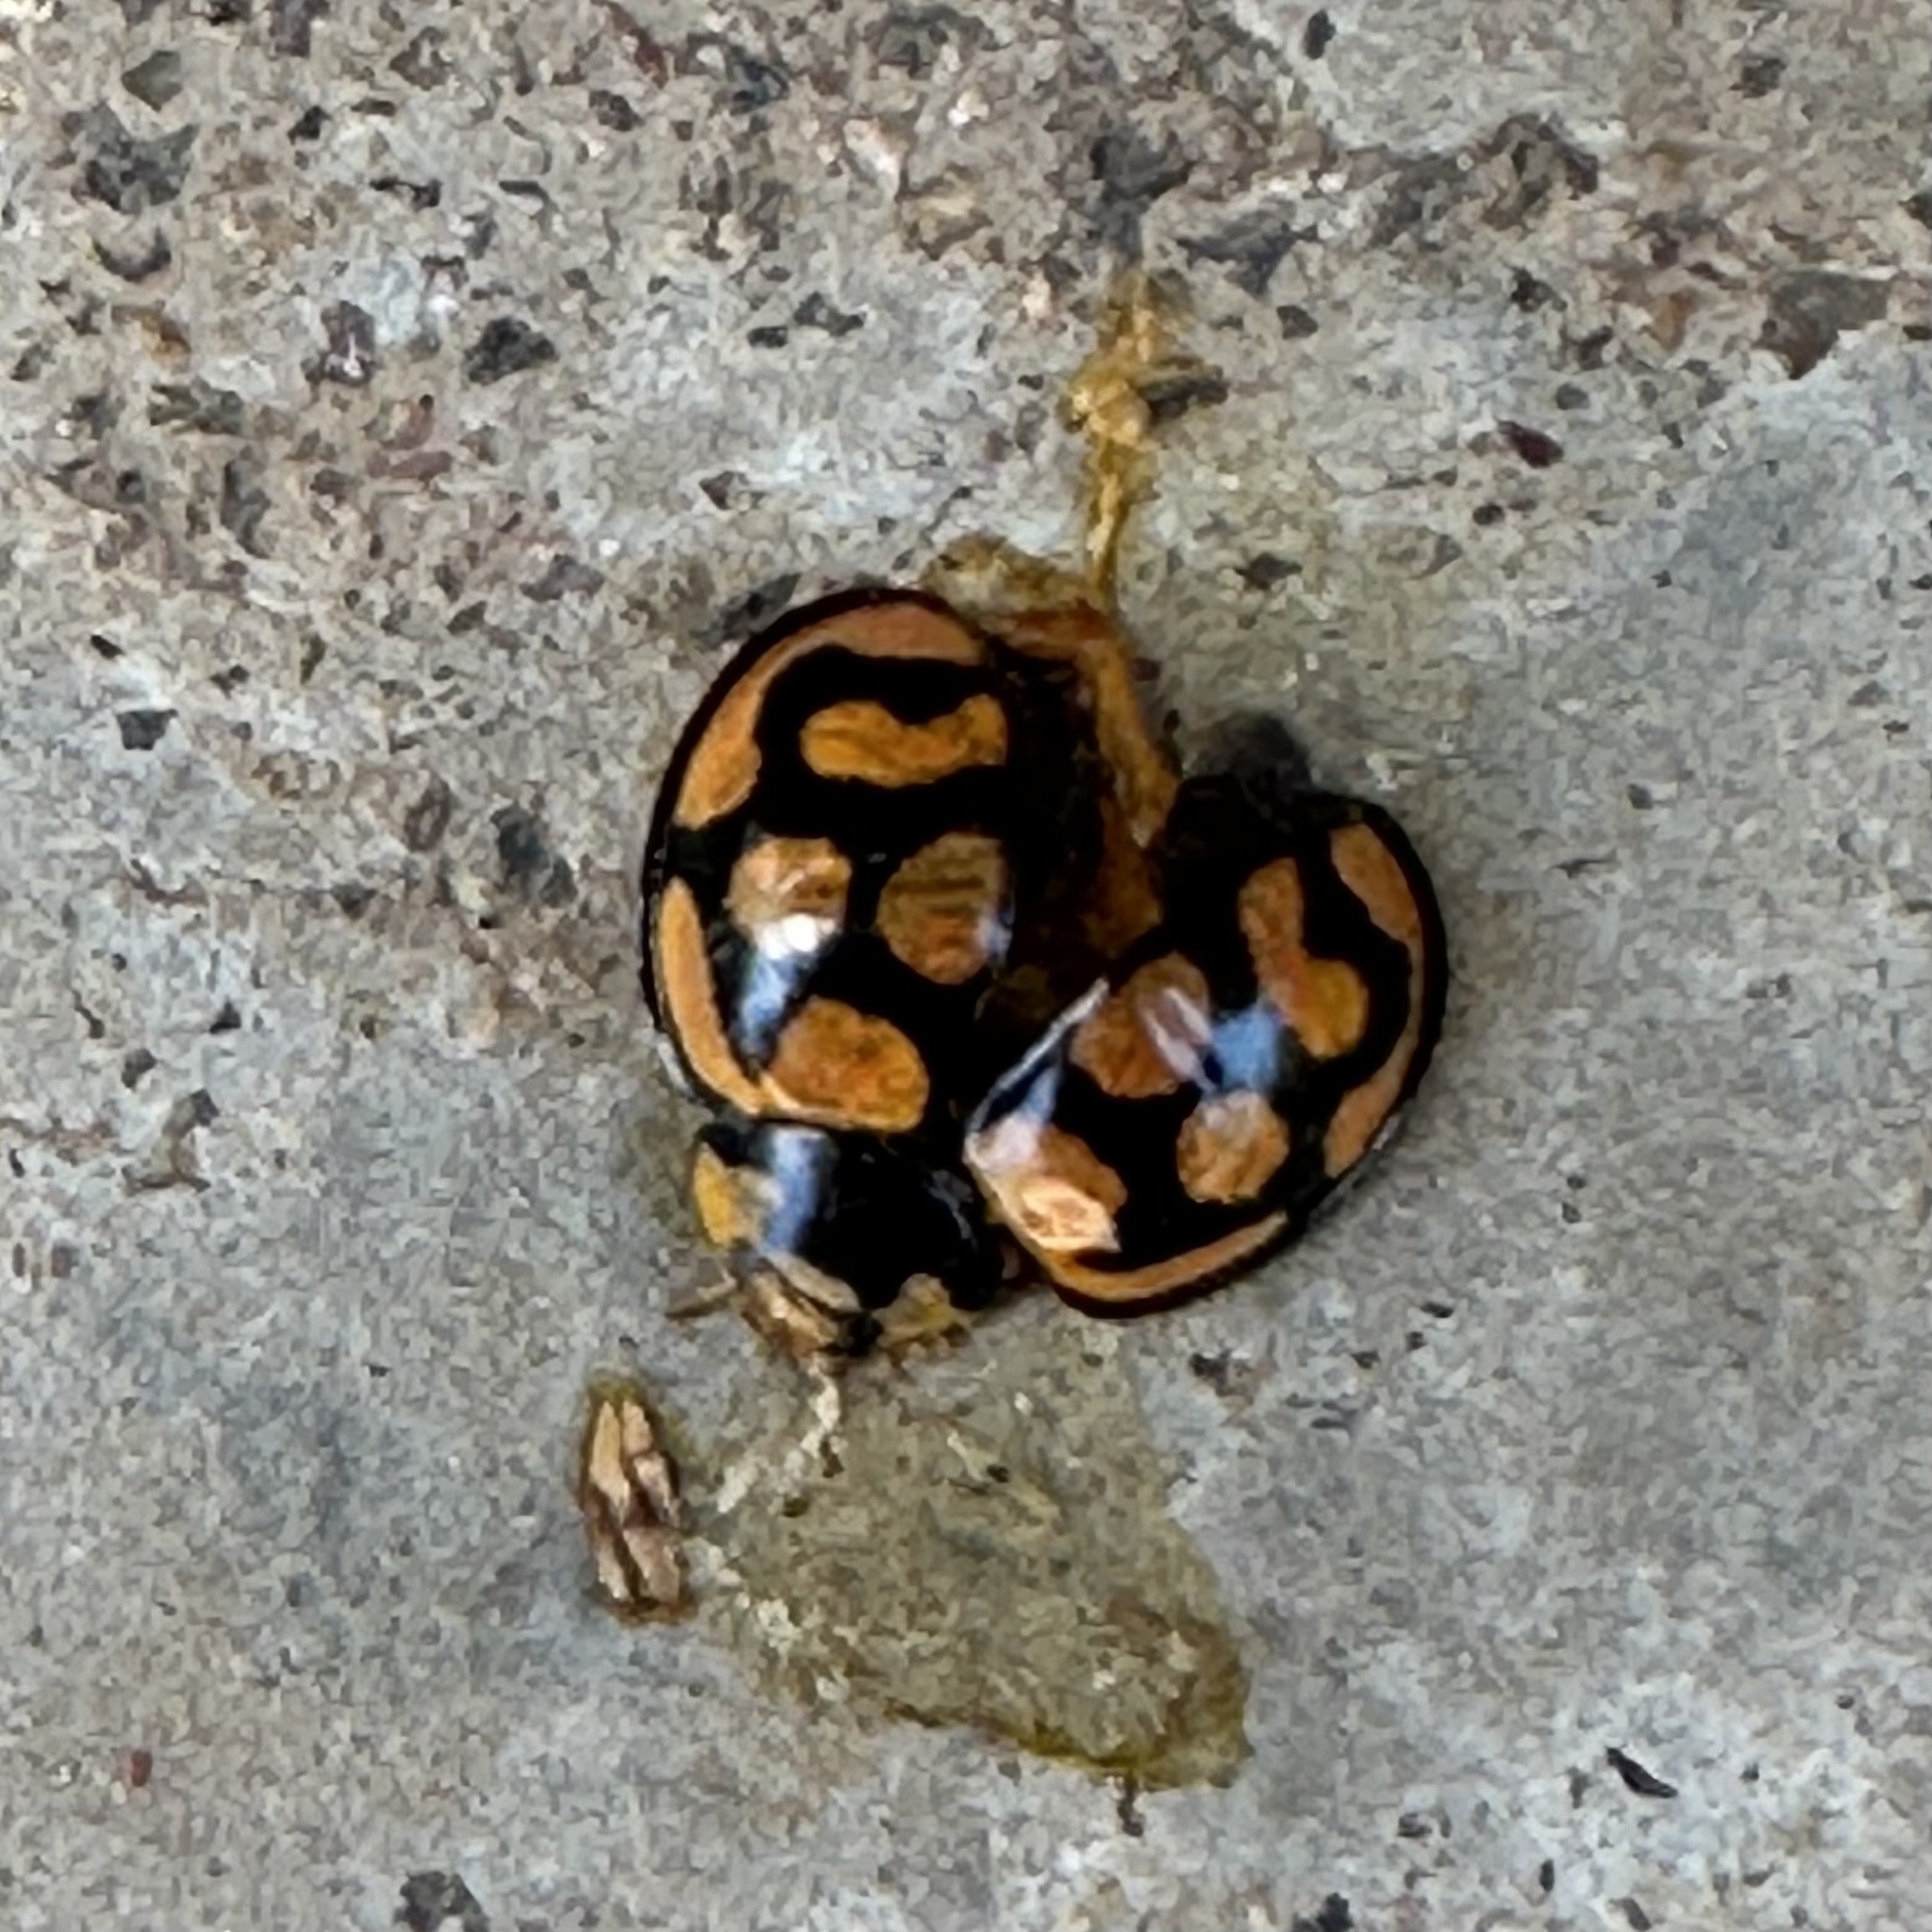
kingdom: Animalia
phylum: Arthropoda
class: Insecta
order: Coleoptera
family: Coccinellidae
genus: Cheilomenes
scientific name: Cheilomenes lunata
